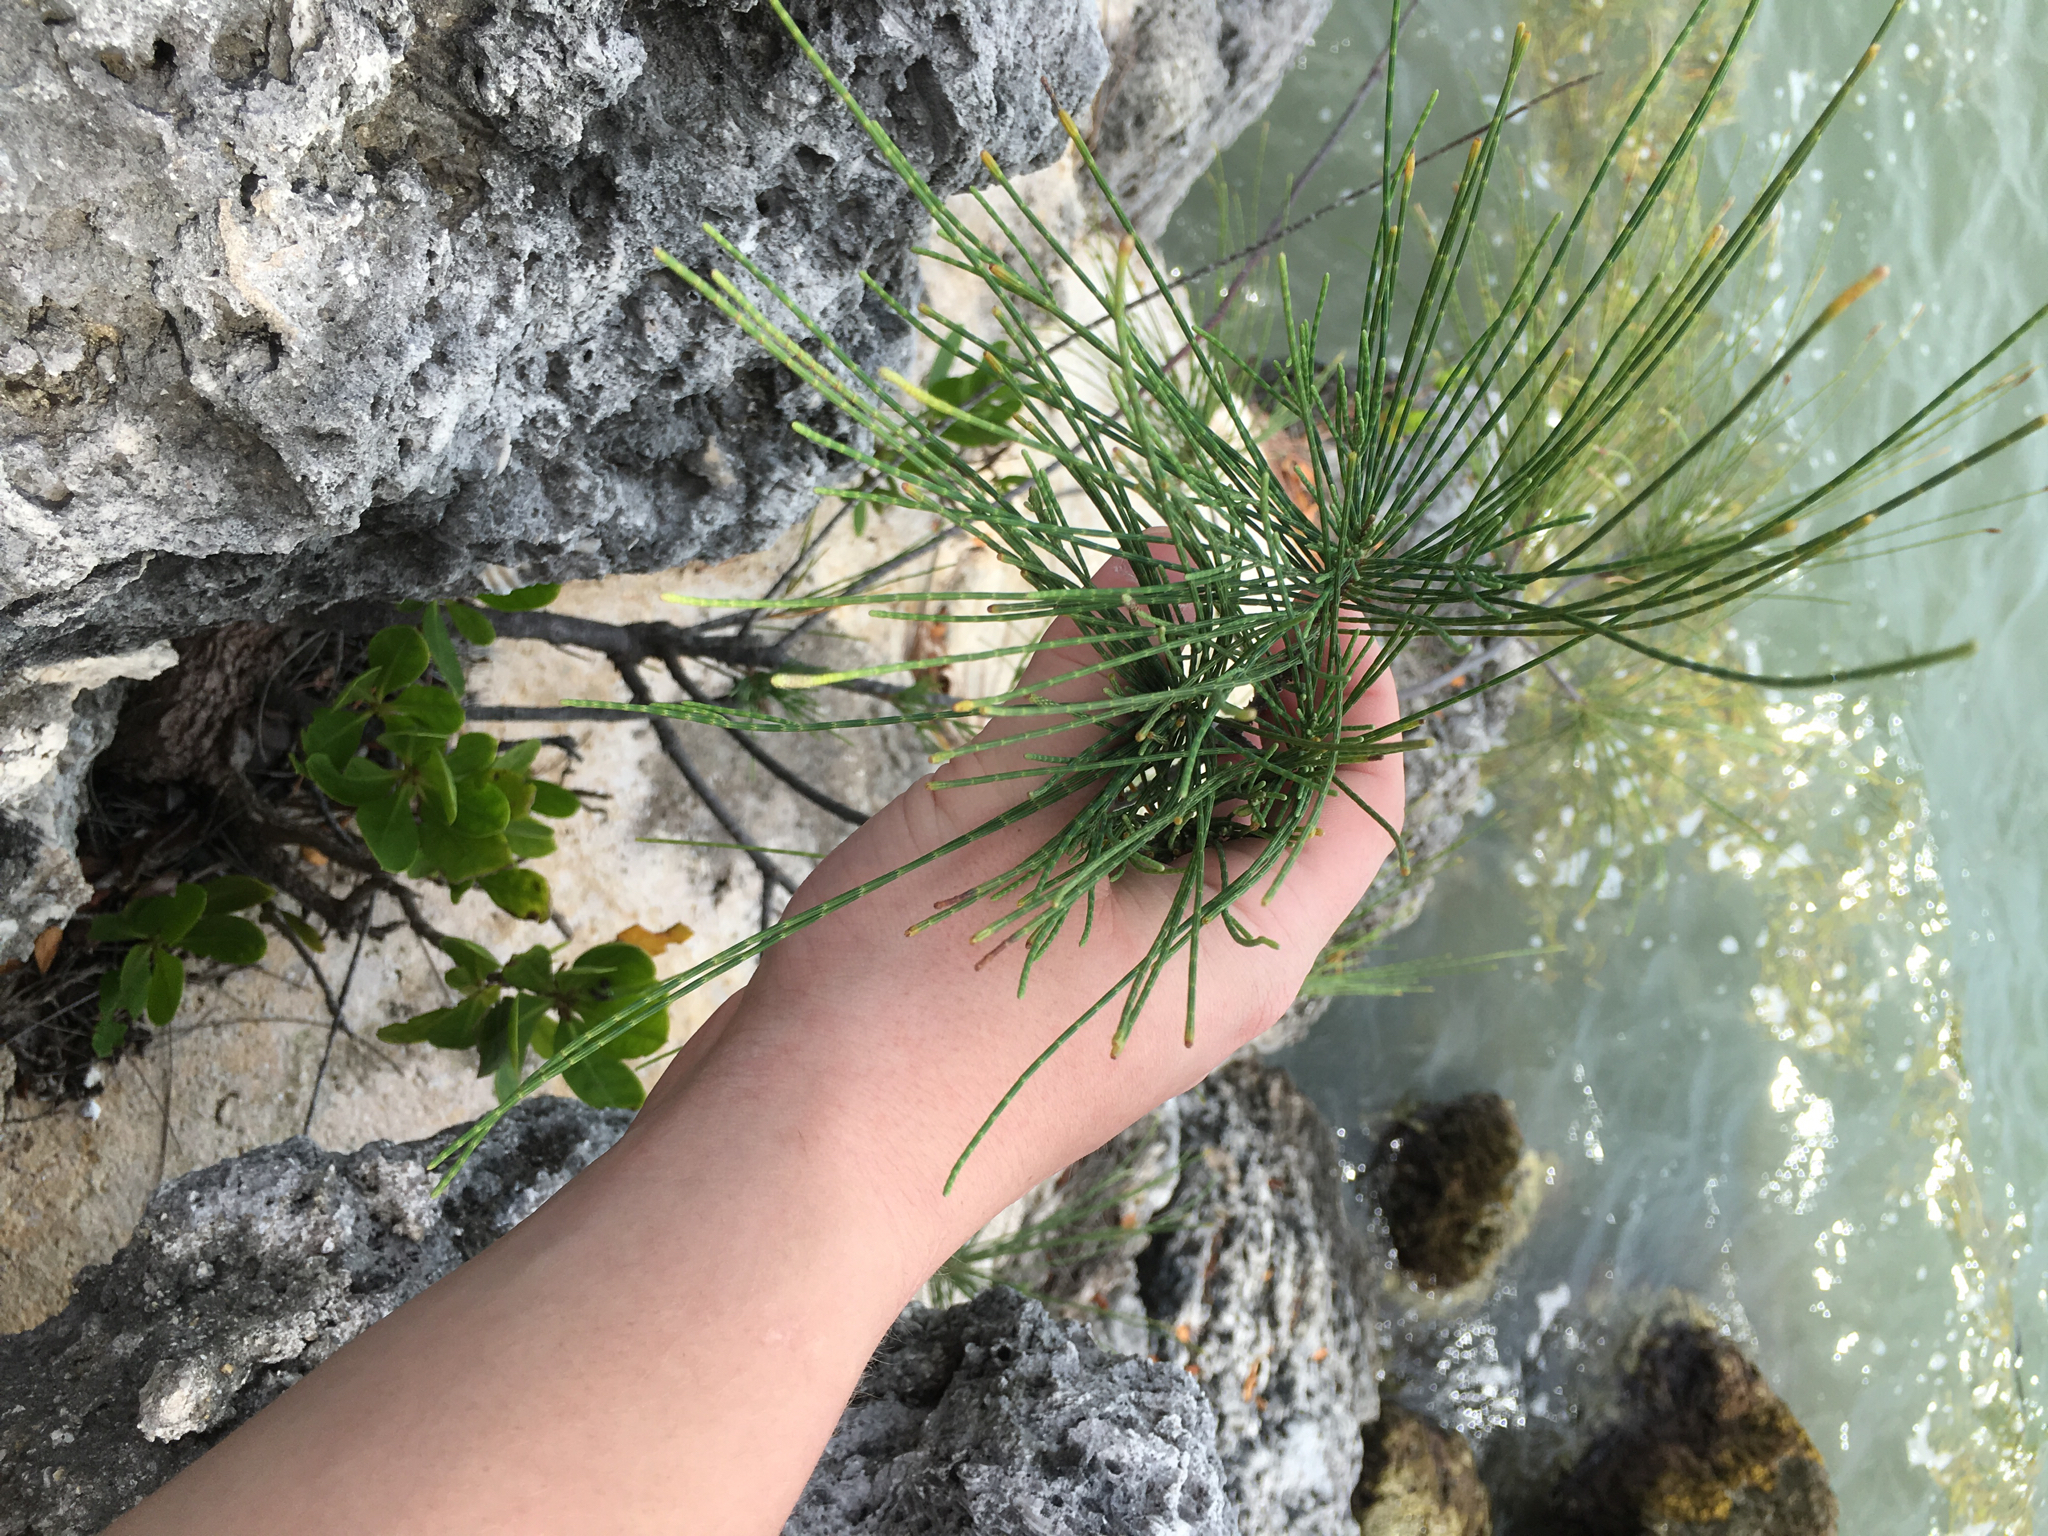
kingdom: Plantae
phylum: Tracheophyta
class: Magnoliopsida
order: Fagales
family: Casuarinaceae
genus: Casuarina
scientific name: Casuarina equisetifolia
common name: Beach sheoak
